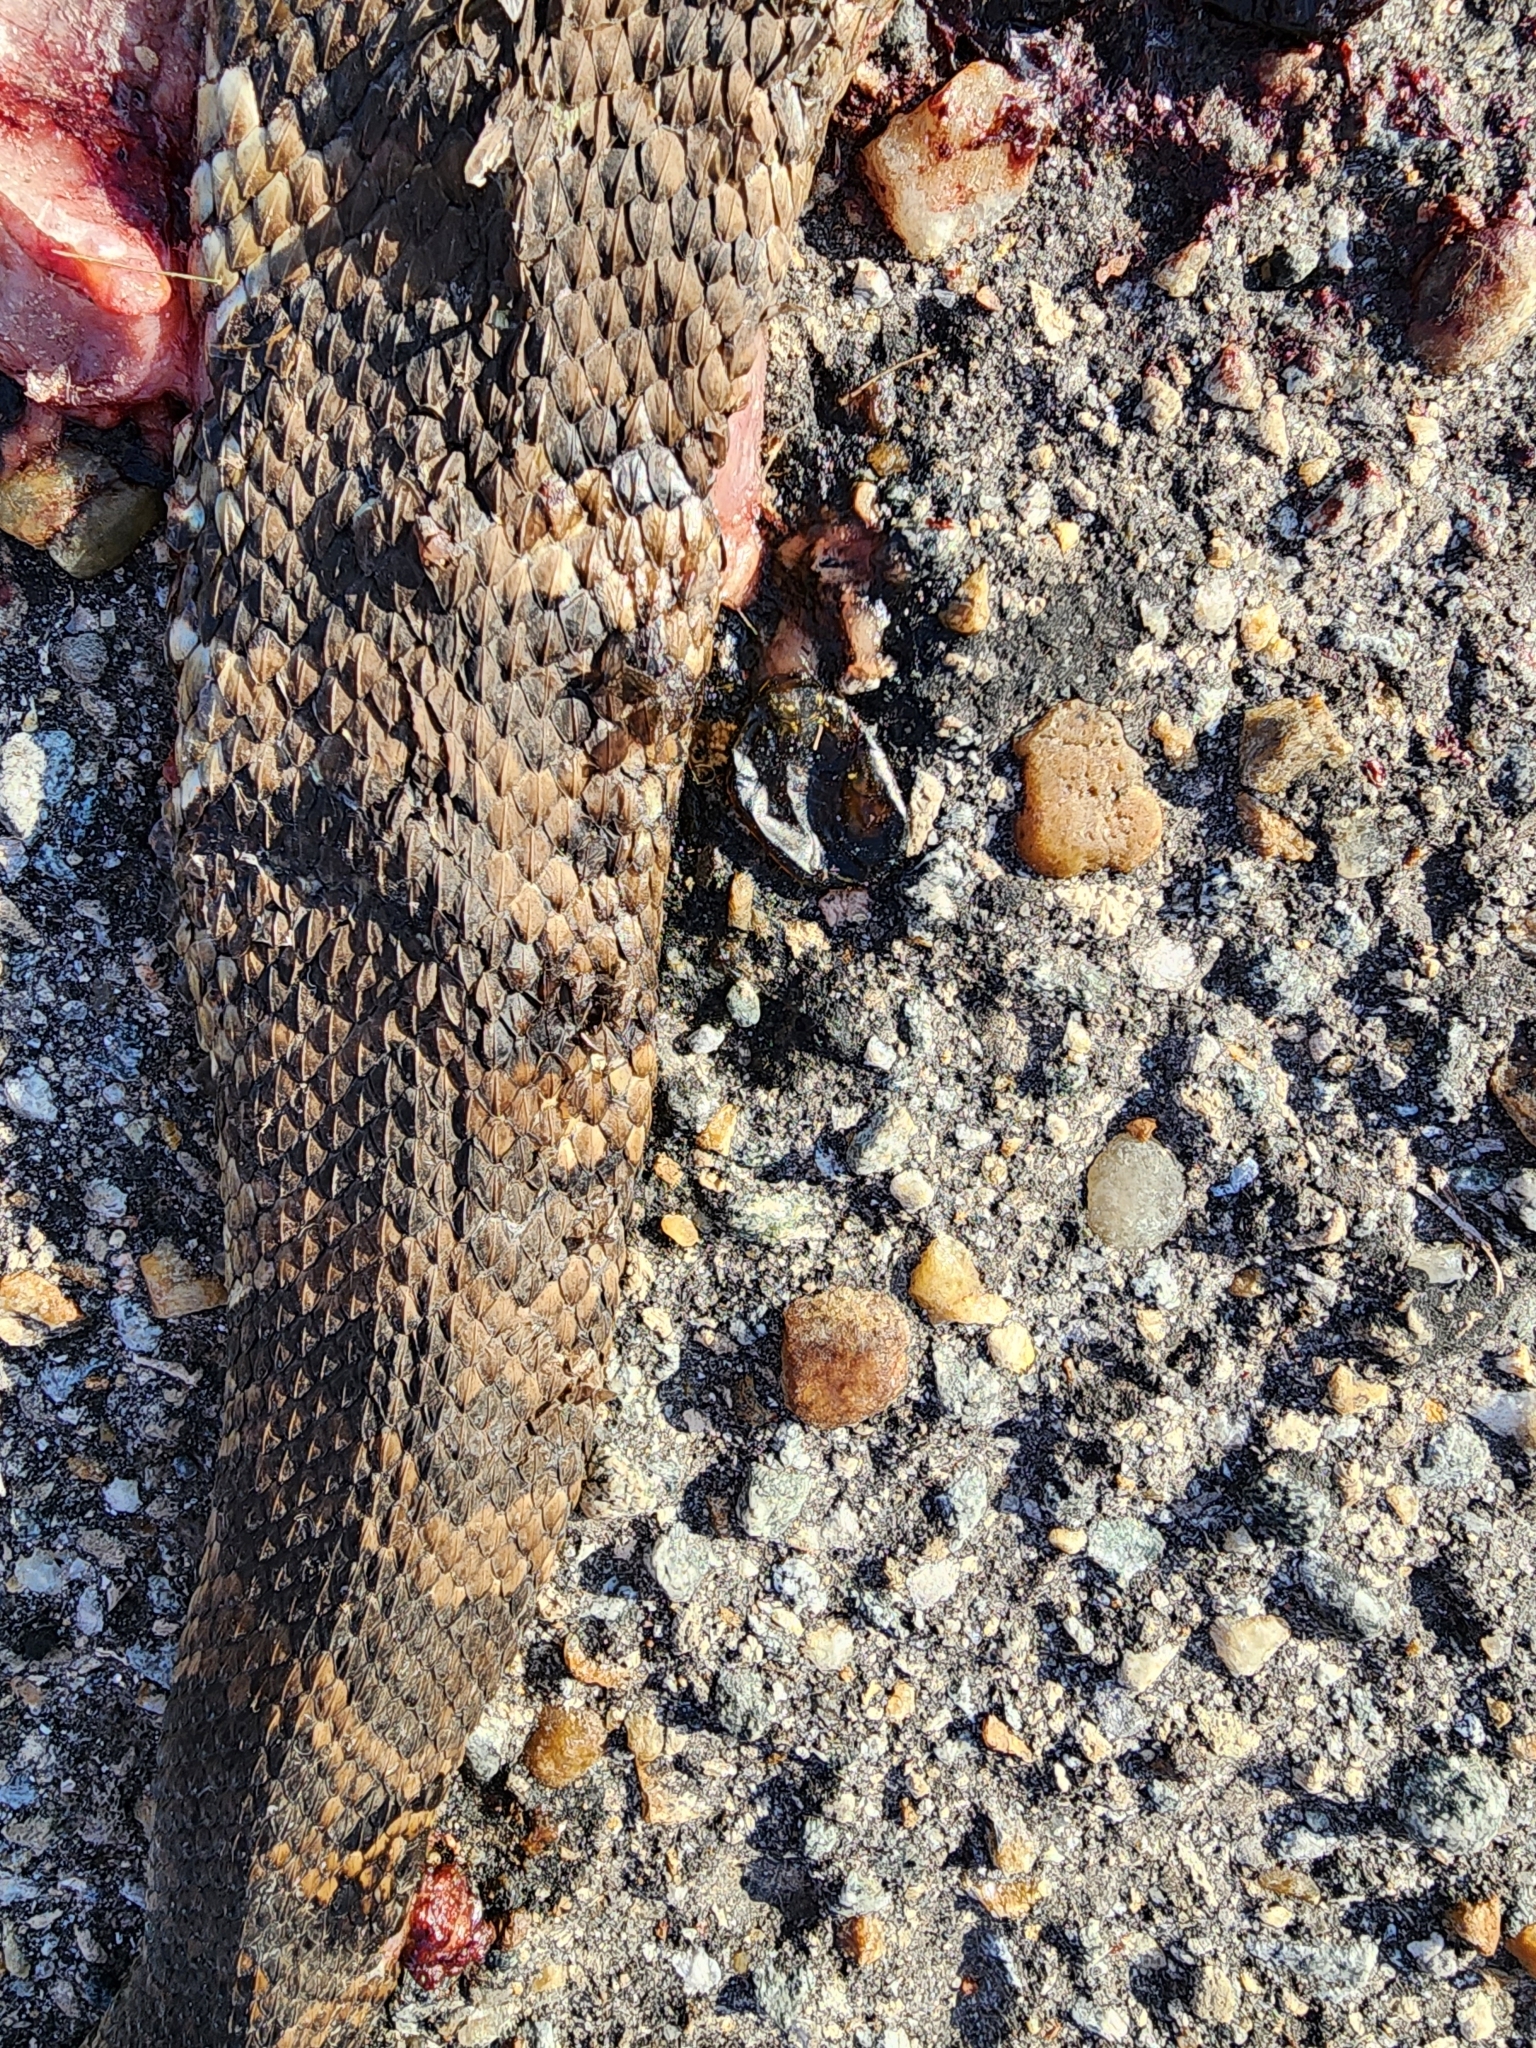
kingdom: Animalia
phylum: Chordata
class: Squamata
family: Viperidae
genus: Agkistrodon
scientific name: Agkistrodon
